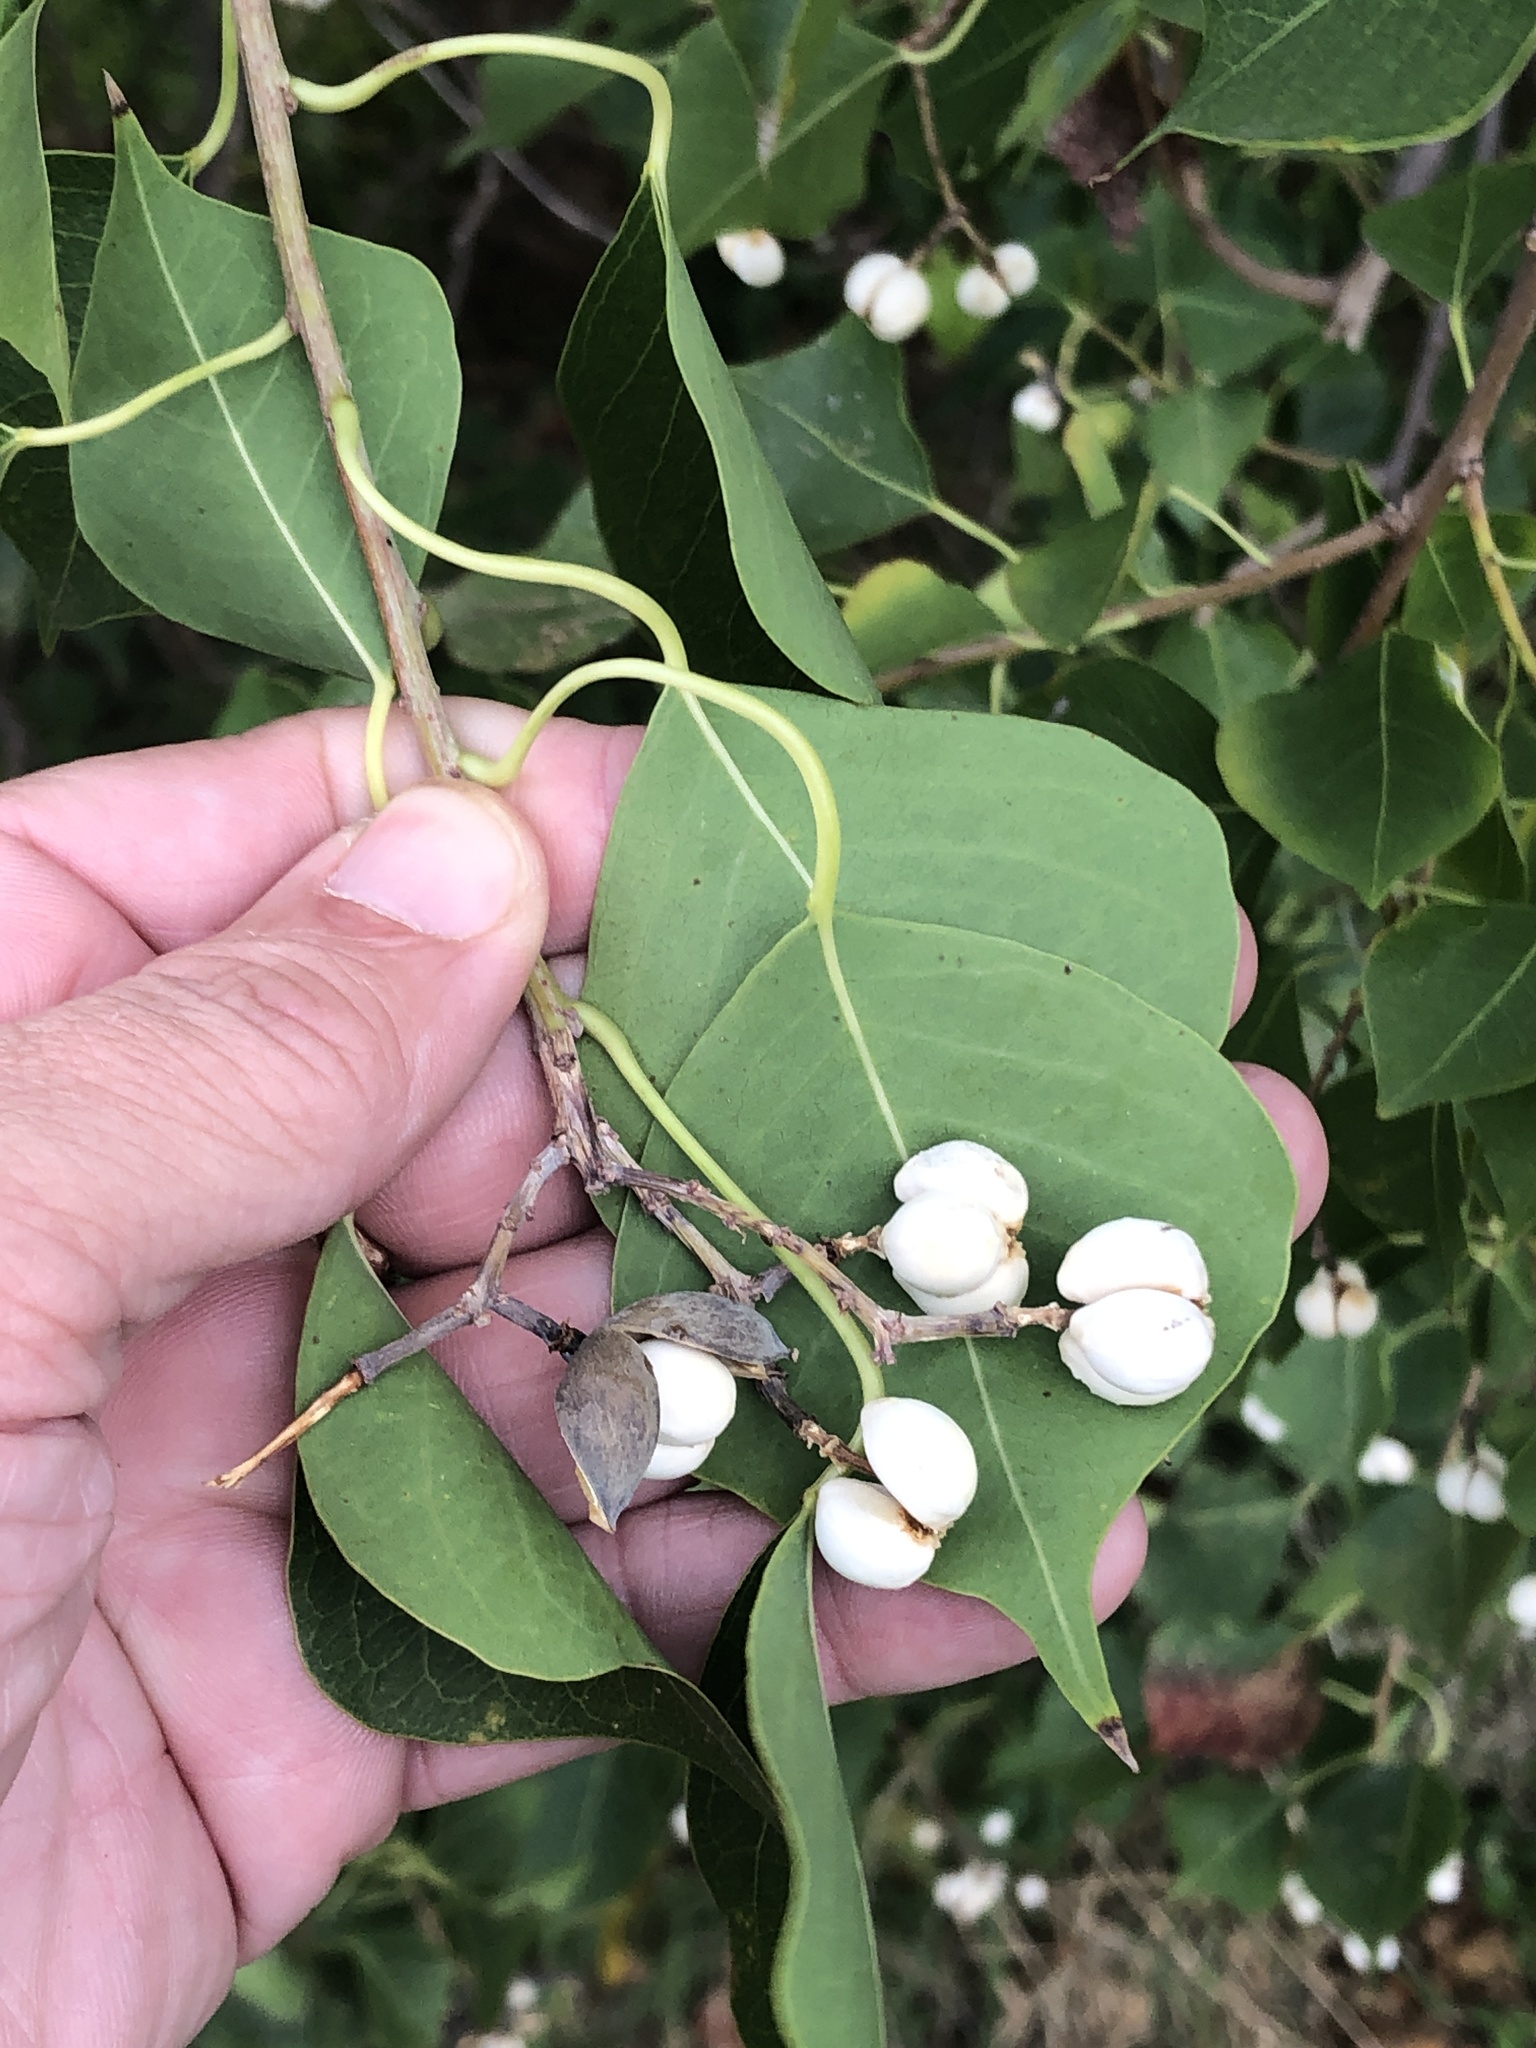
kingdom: Plantae
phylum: Tracheophyta
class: Magnoliopsida
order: Malpighiales
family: Euphorbiaceae
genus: Triadica
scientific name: Triadica sebifera
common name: Chinese tallow
